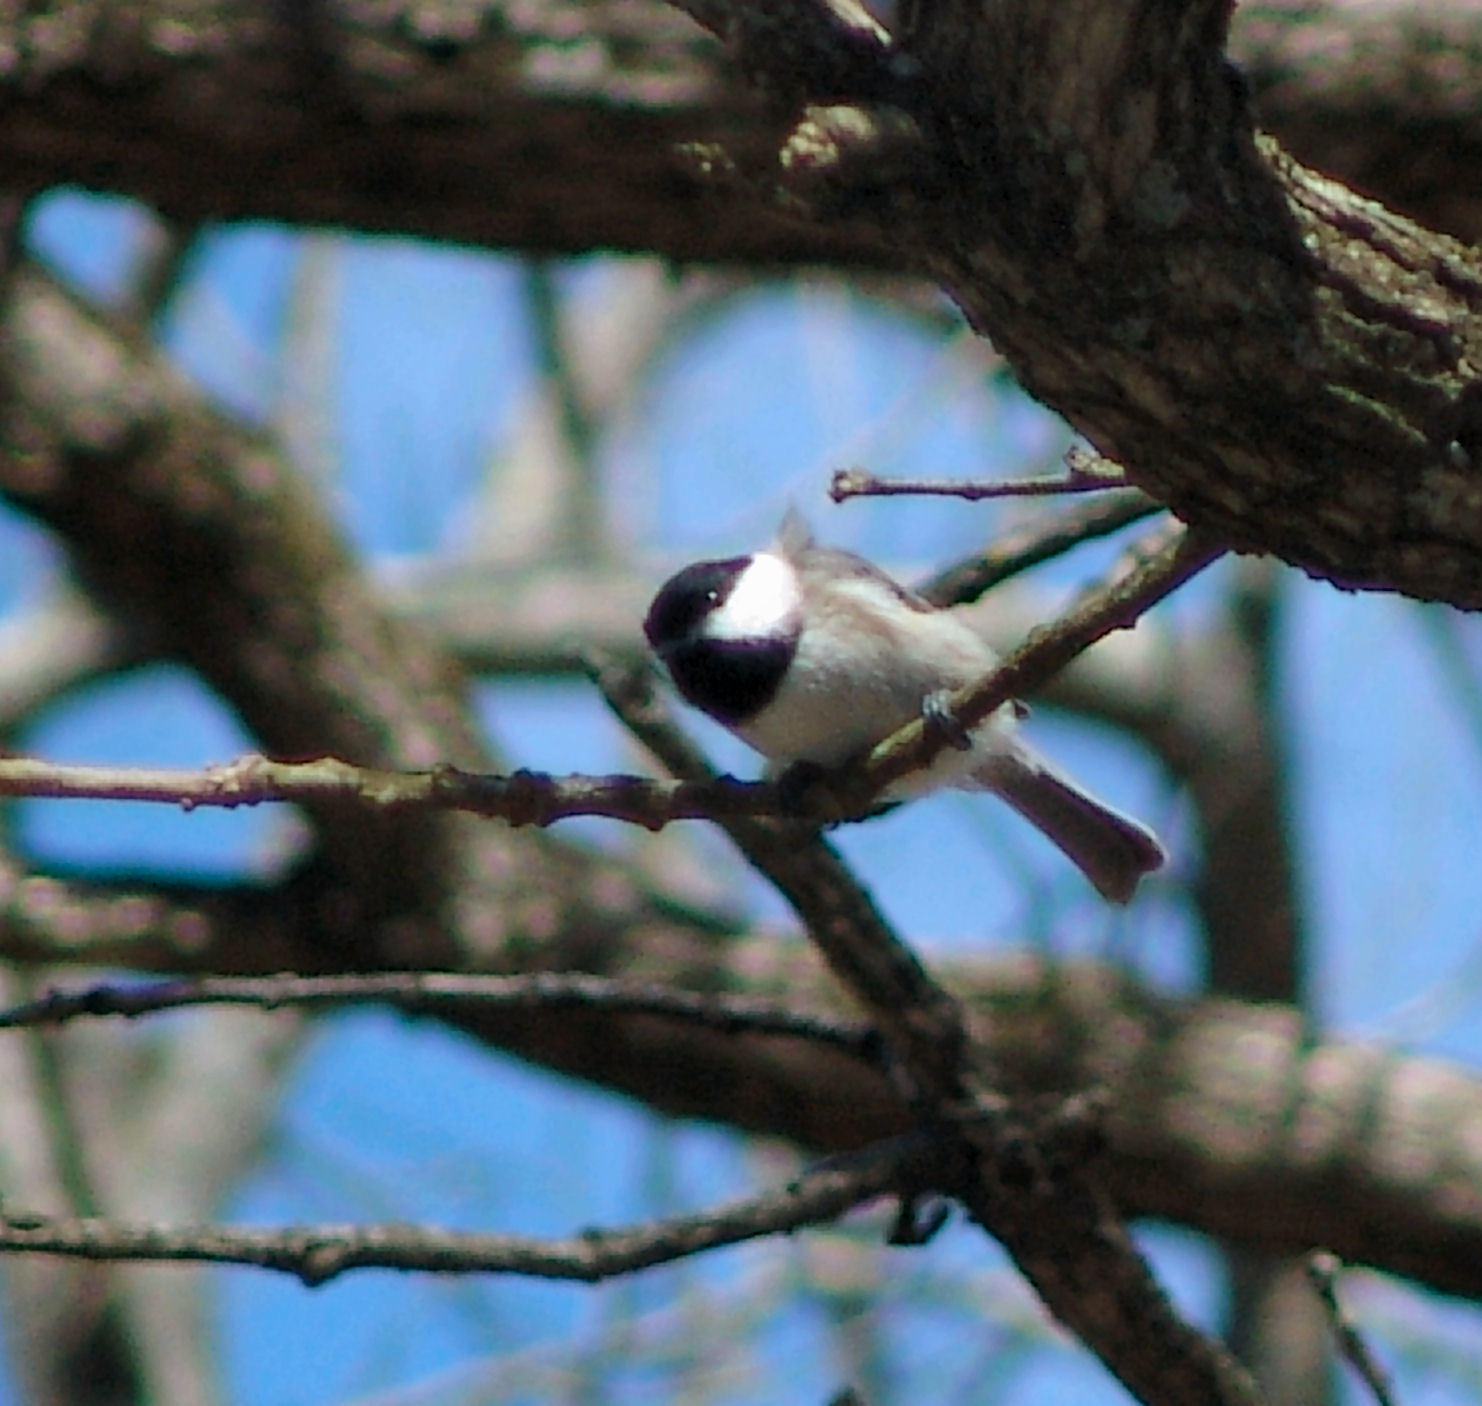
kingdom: Animalia
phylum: Chordata
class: Aves
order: Passeriformes
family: Paridae
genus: Poecile
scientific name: Poecile carolinensis
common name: Carolina chickadee
